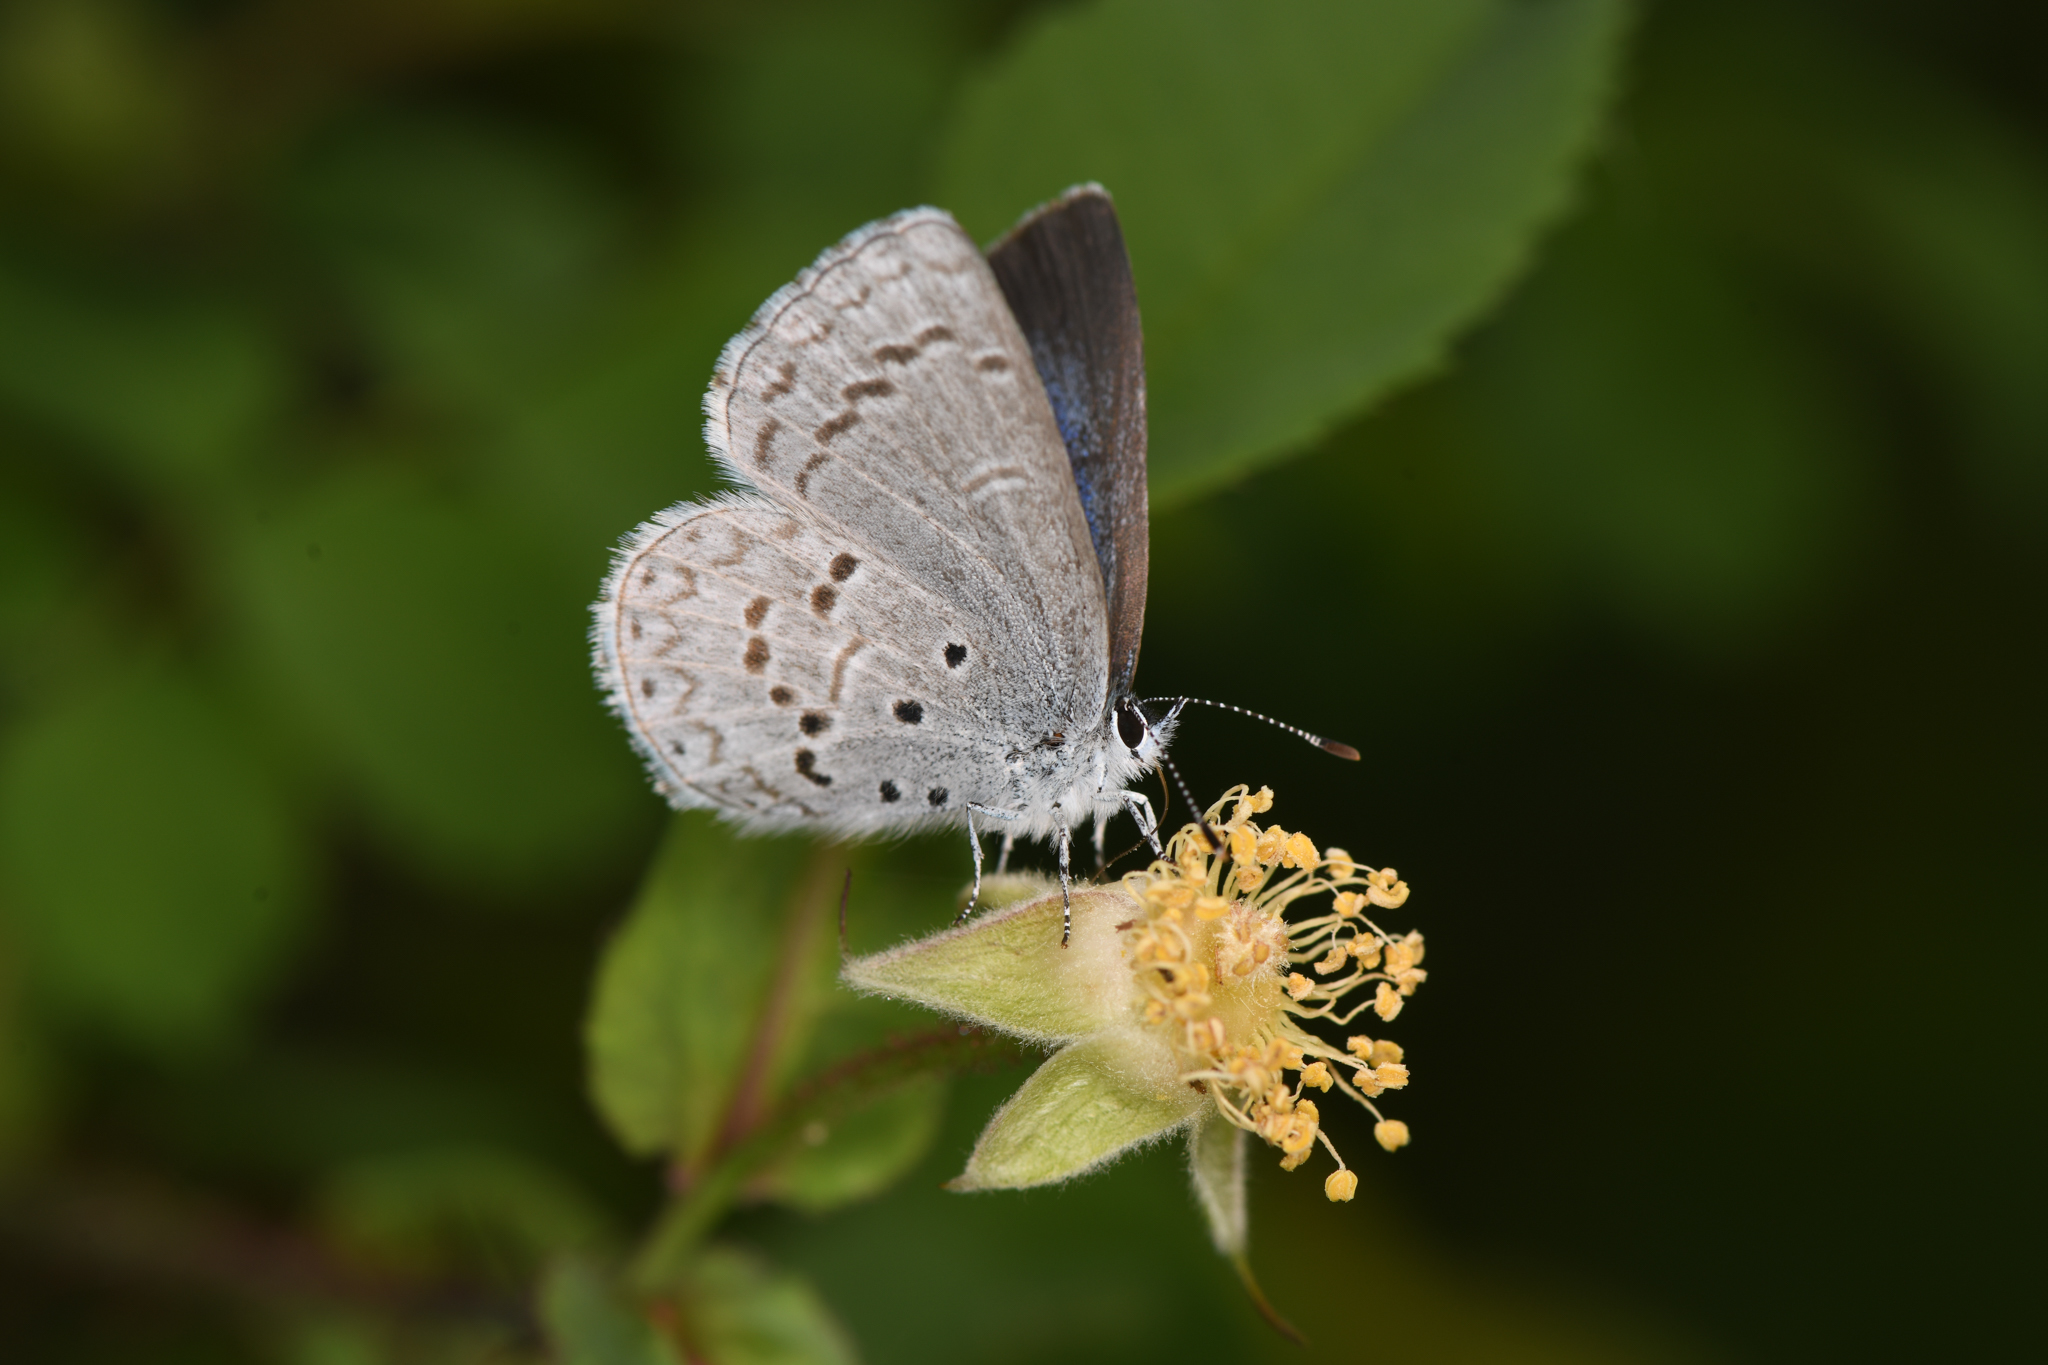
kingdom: Animalia
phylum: Arthropoda
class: Insecta
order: Lepidoptera
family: Lycaenidae
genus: Celastrina
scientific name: Celastrina ladon
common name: Spring azure
